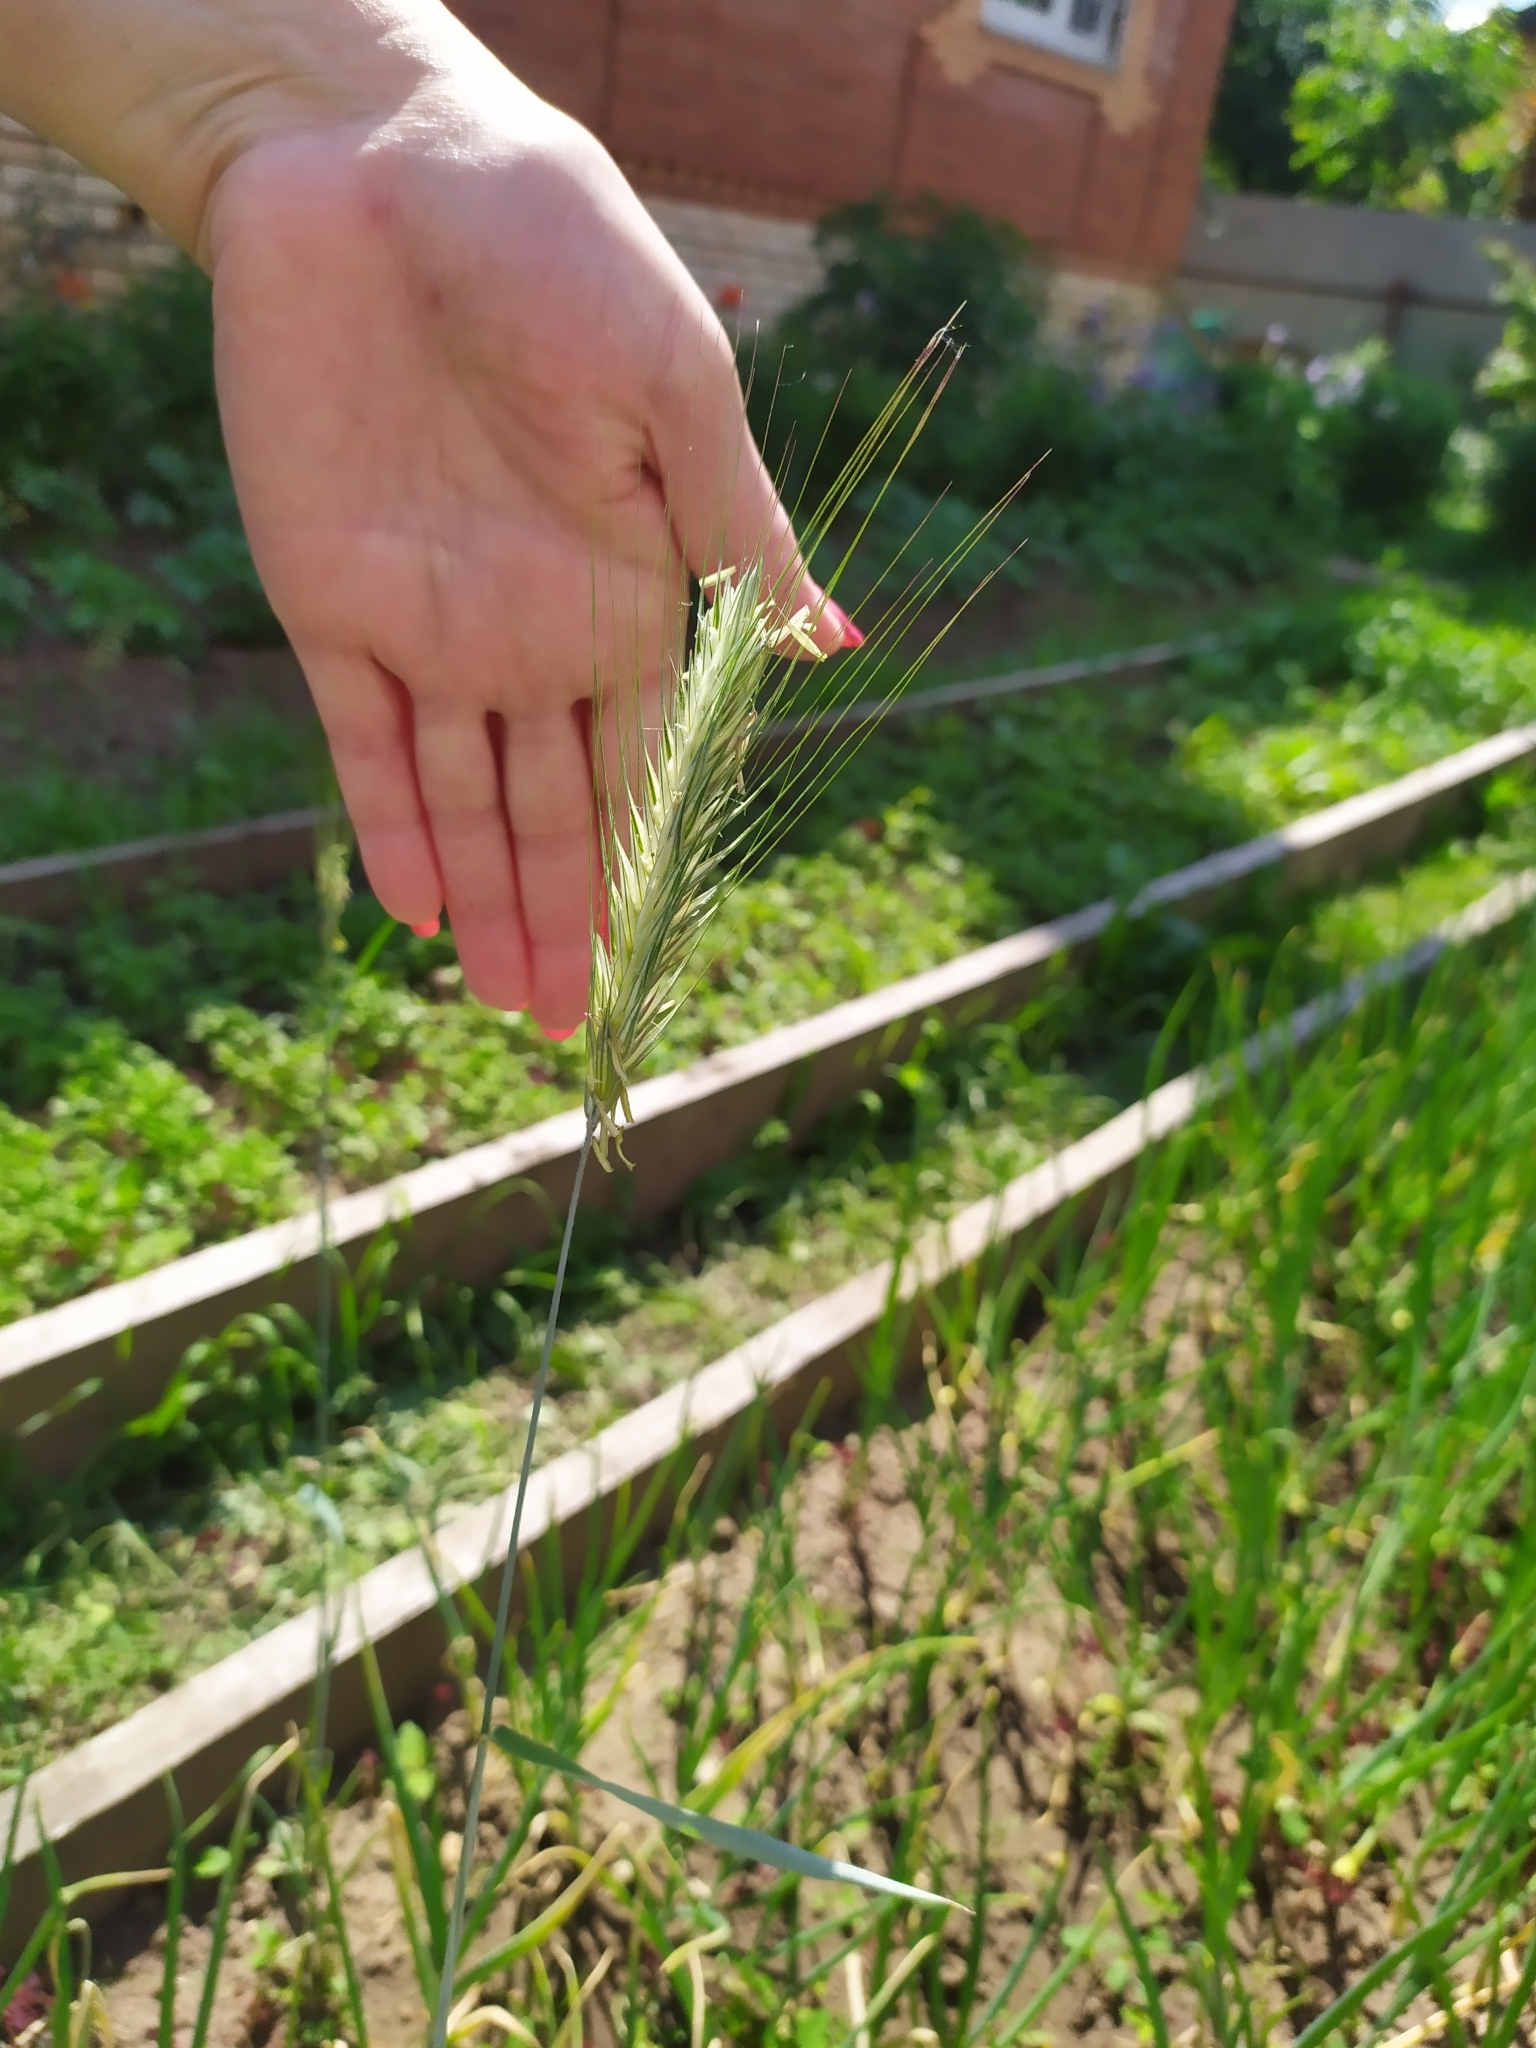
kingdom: Plantae
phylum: Tracheophyta
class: Liliopsida
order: Poales
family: Poaceae
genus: Triticum
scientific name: Triticum aestivum
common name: Common wheat
